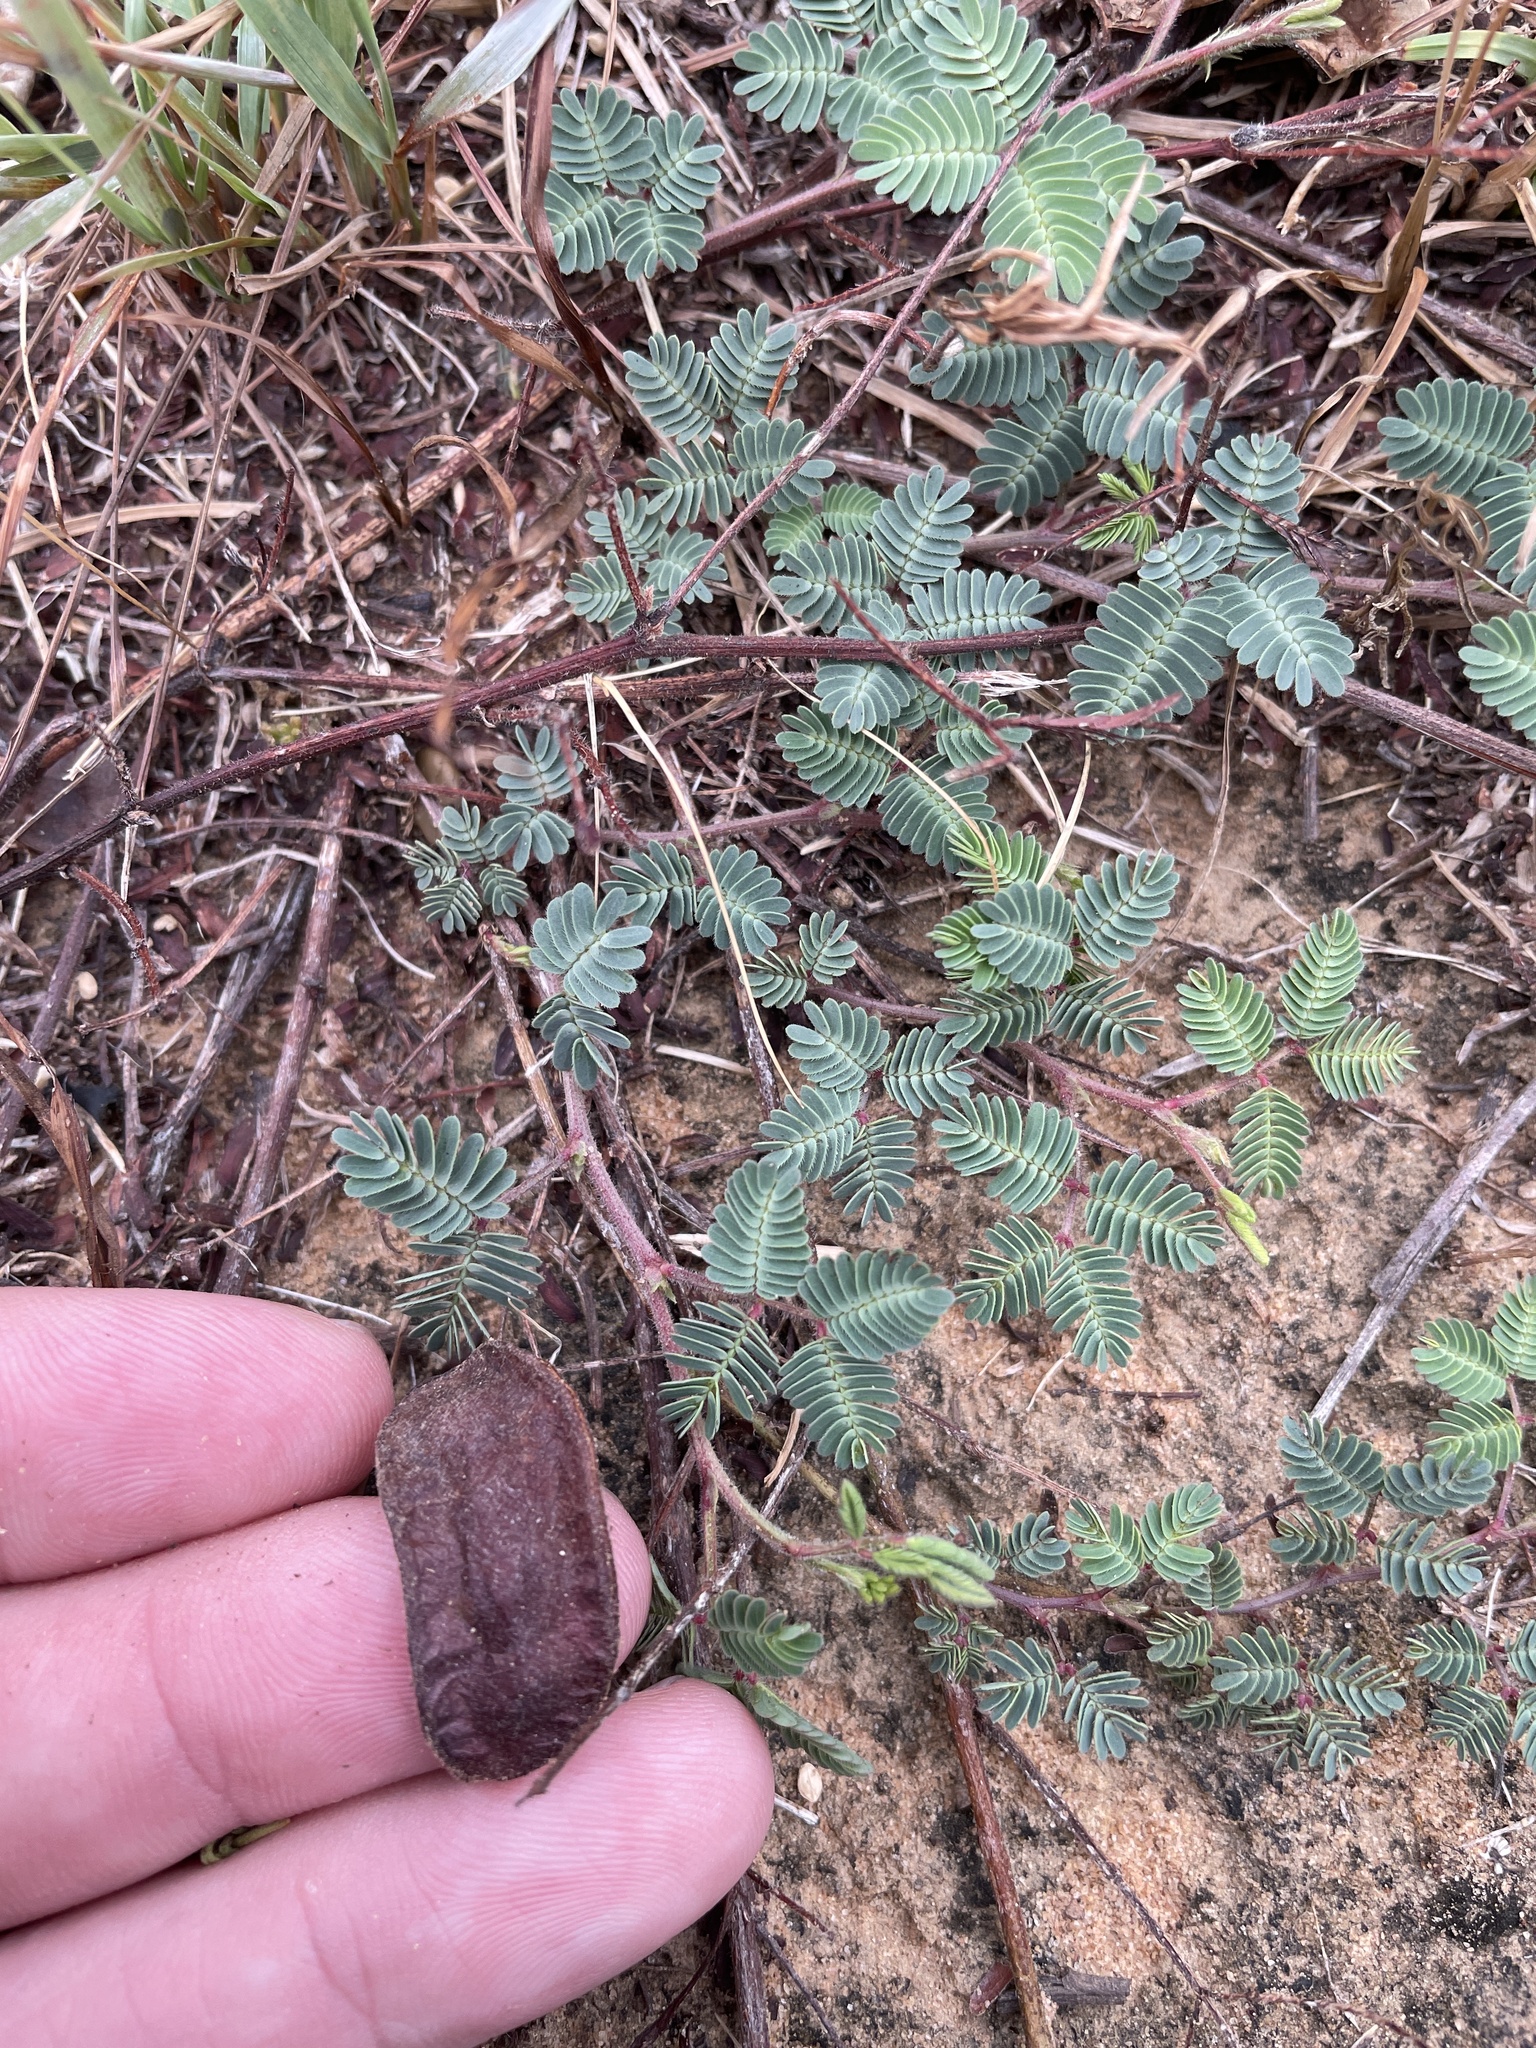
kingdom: Plantae
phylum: Tracheophyta
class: Magnoliopsida
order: Fabales
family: Fabaceae
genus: Neptunia
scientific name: Neptunia lutea
